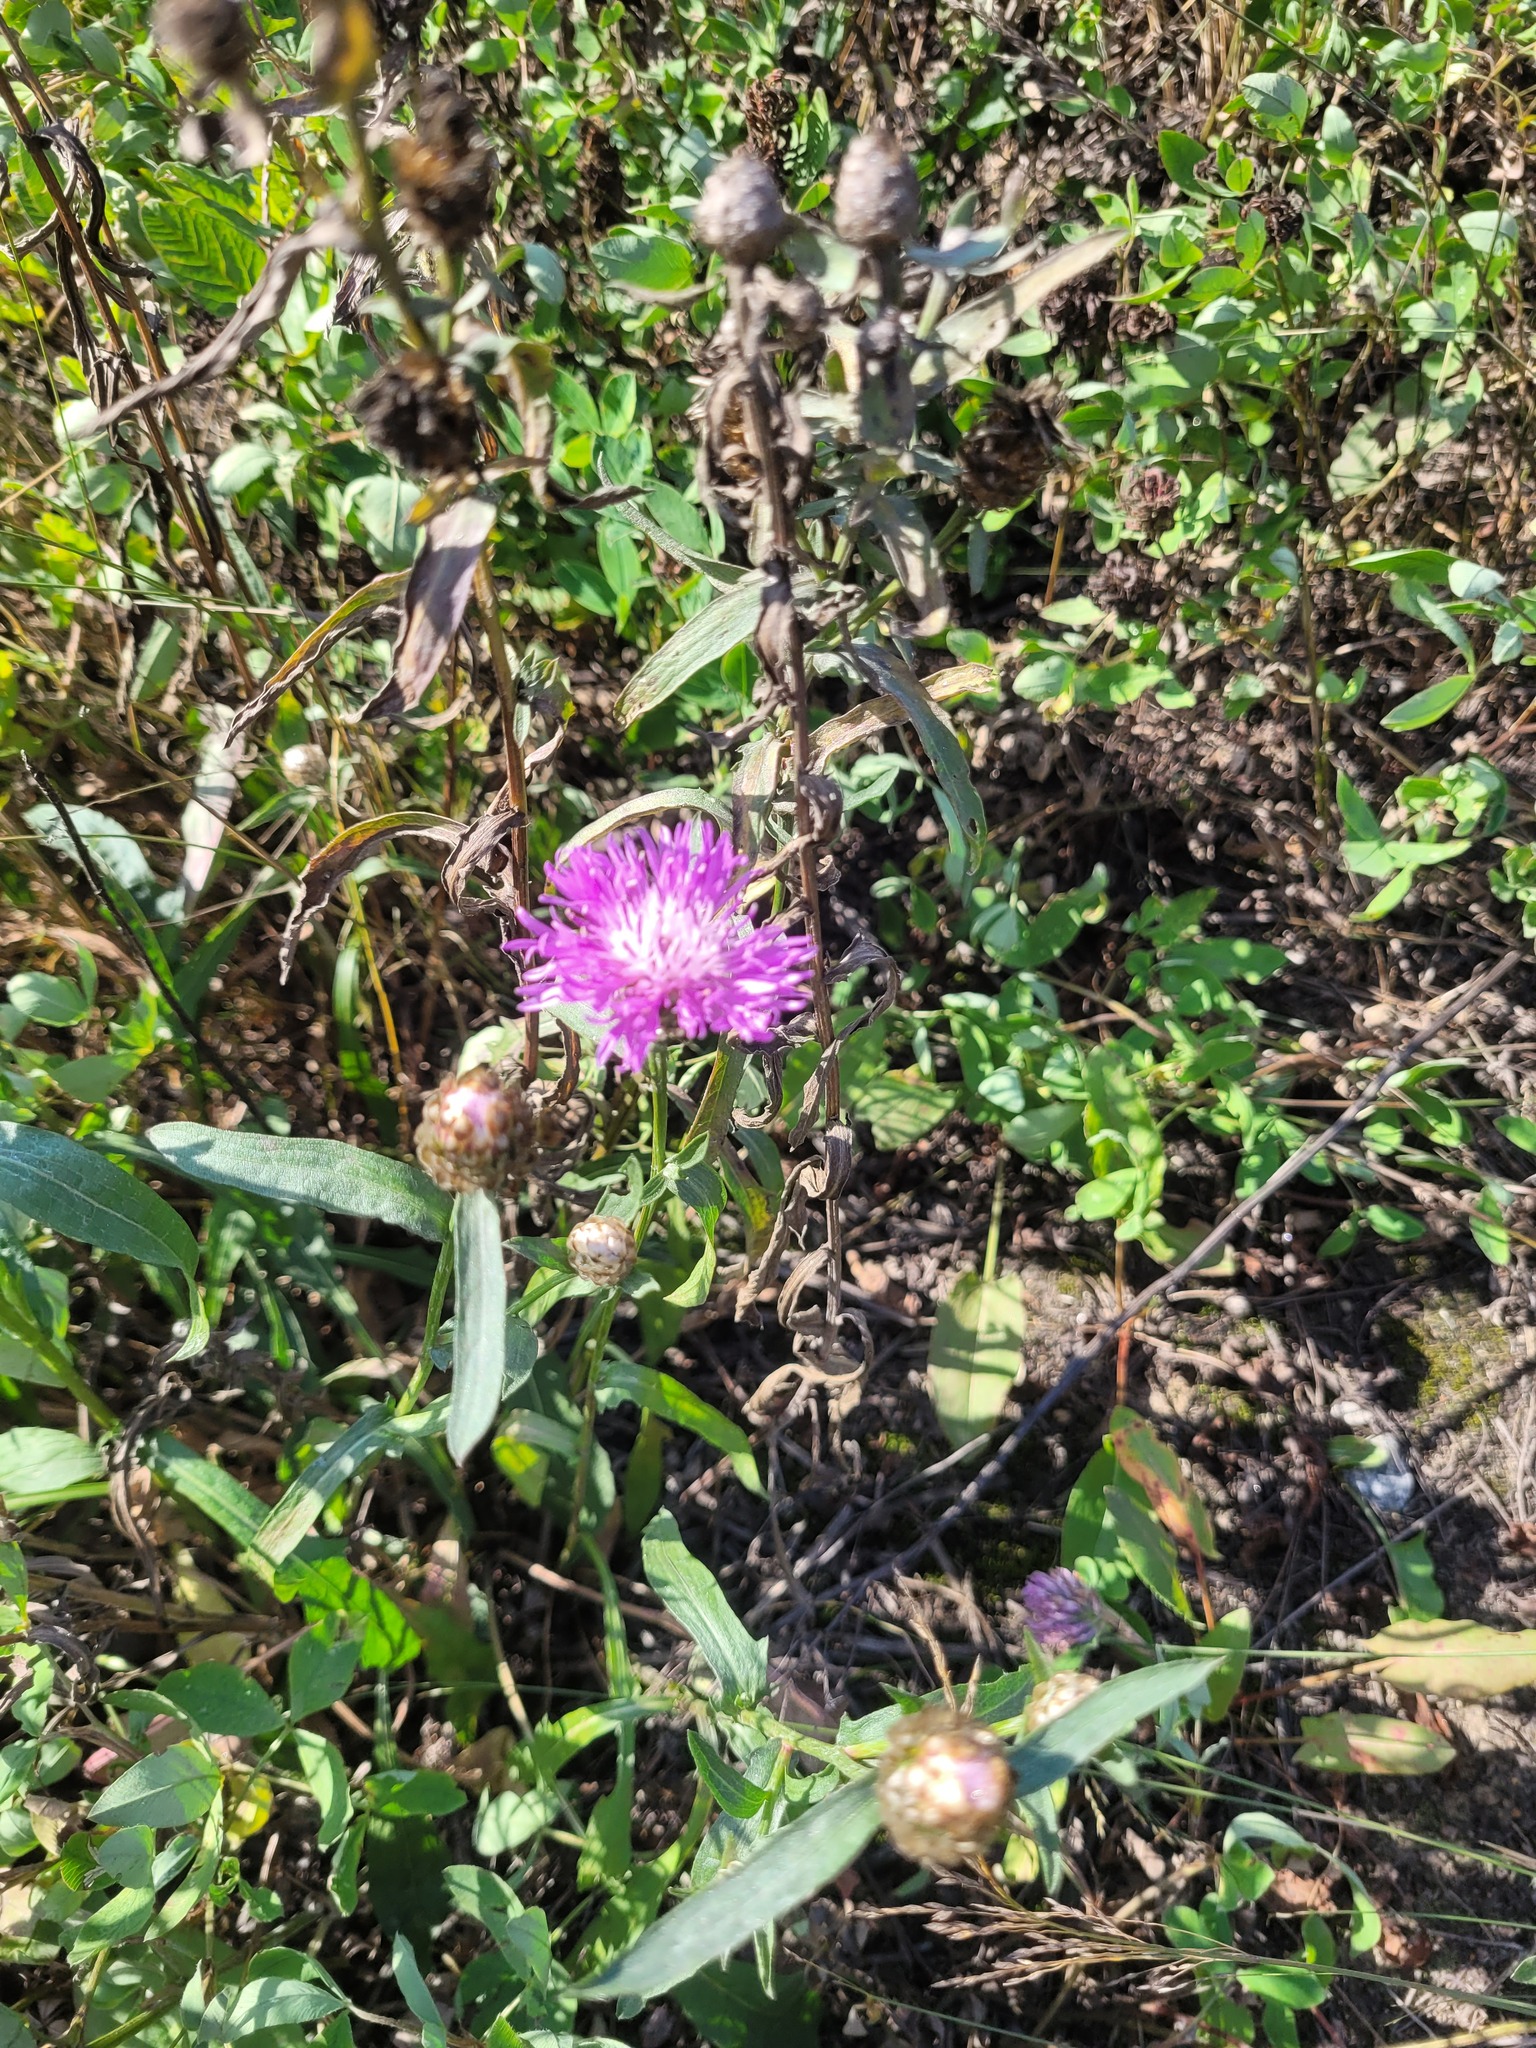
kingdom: Plantae
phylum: Tracheophyta
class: Magnoliopsida
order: Asterales
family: Asteraceae
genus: Centaurea
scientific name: Centaurea jacea
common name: Brown knapweed
